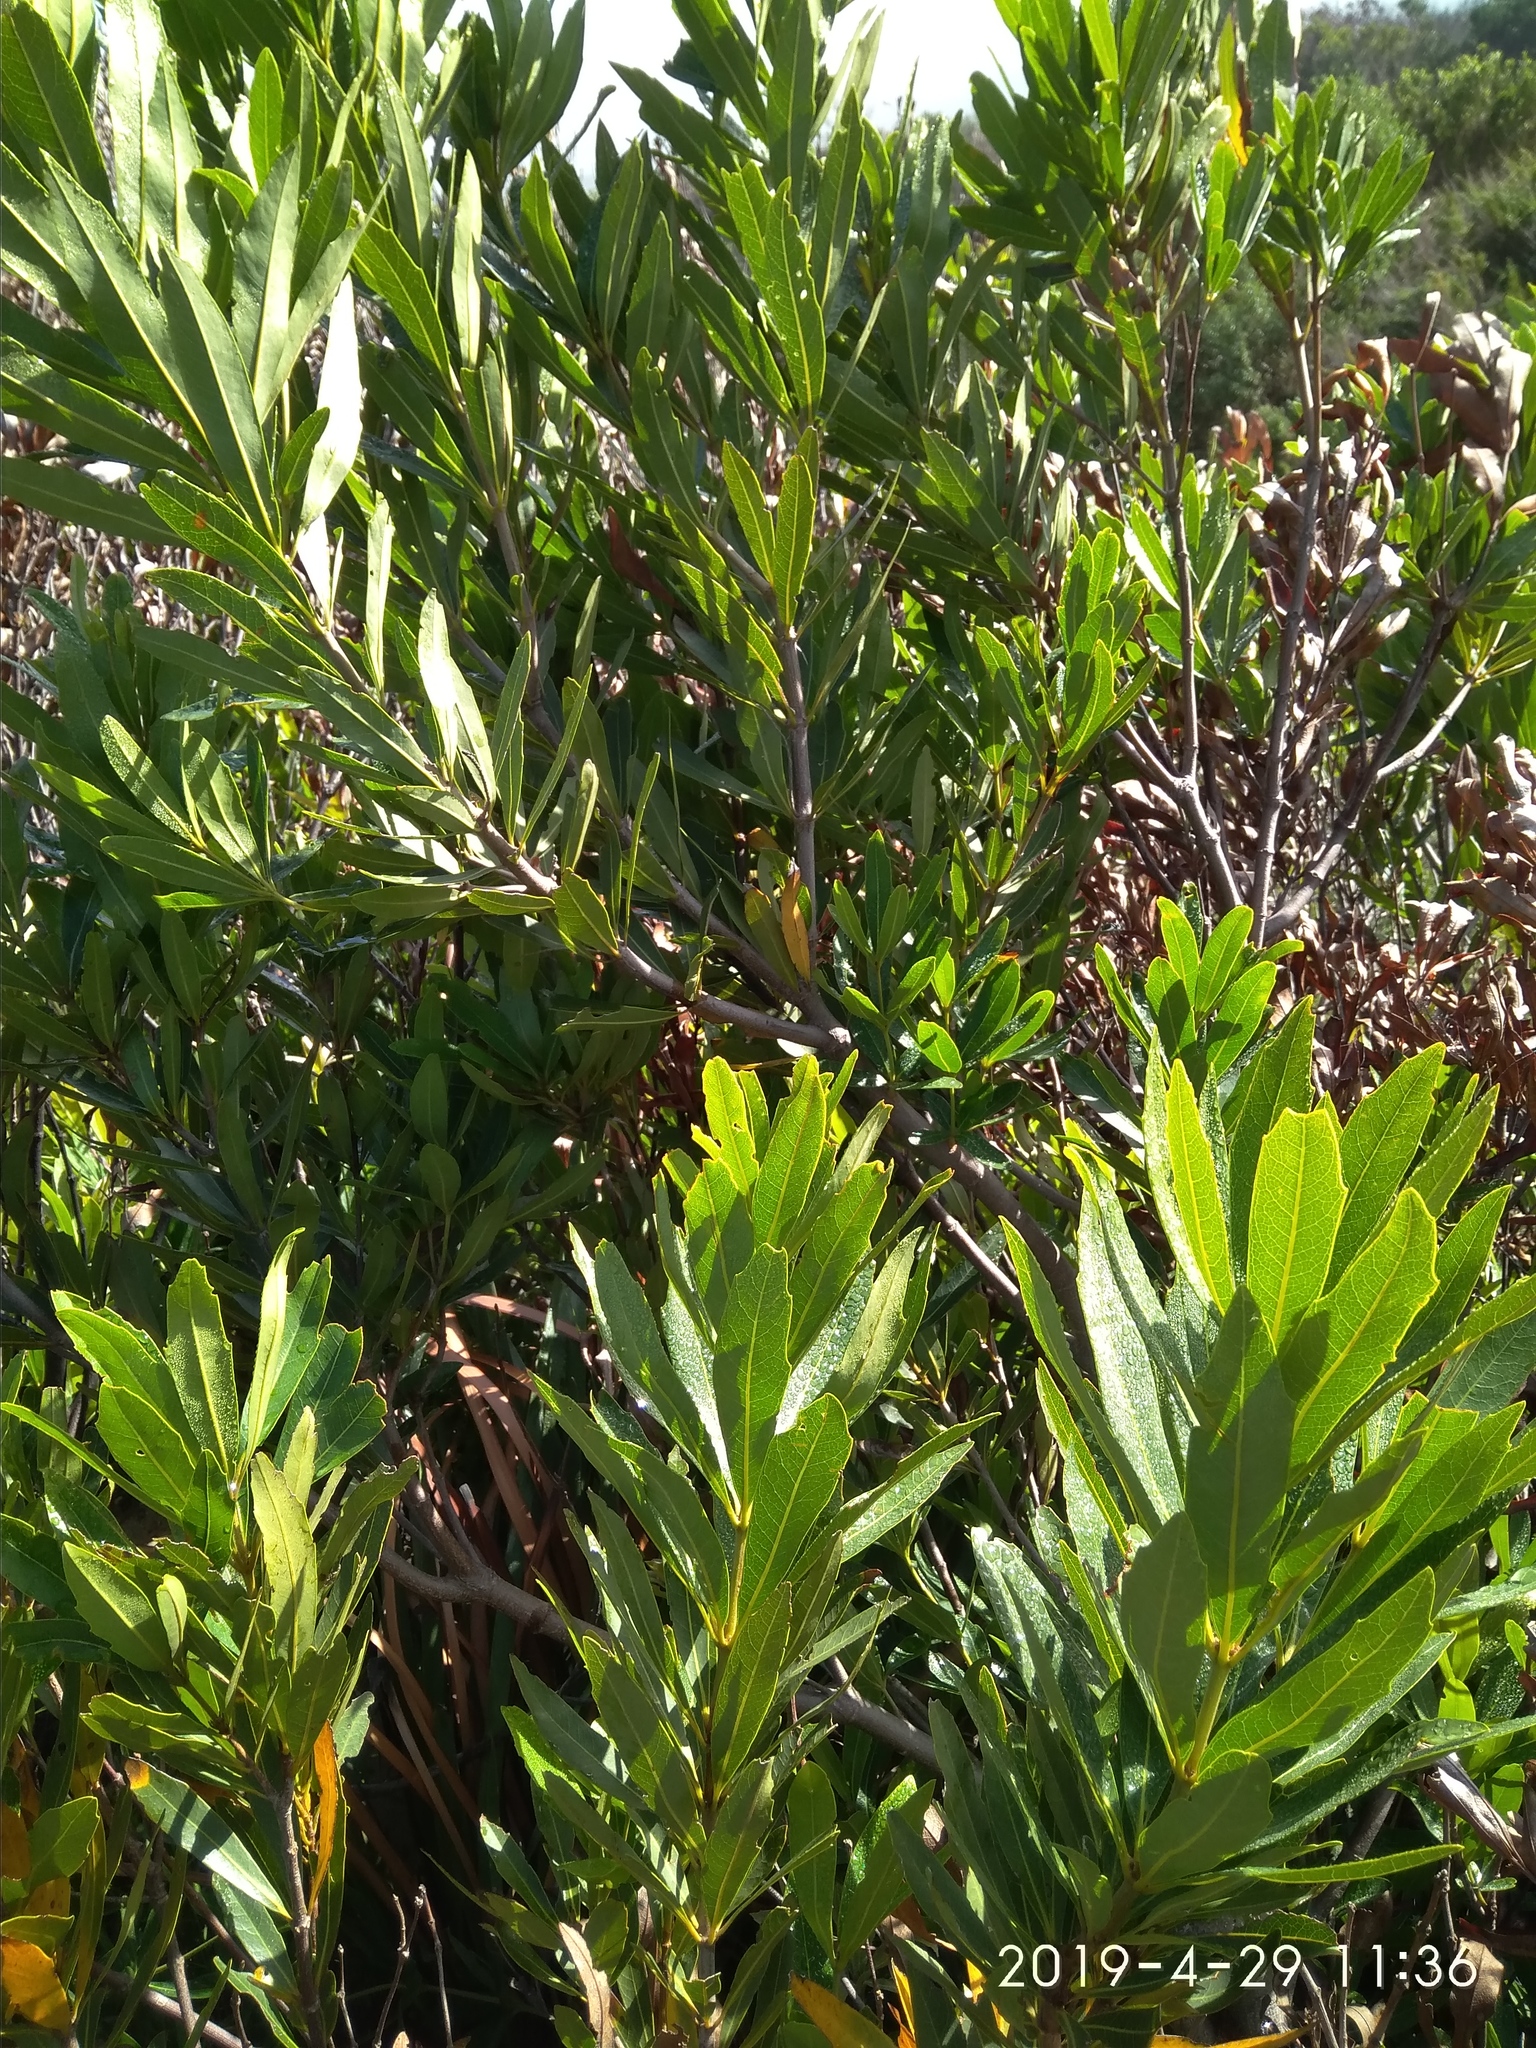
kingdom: Plantae
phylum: Tracheophyta
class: Magnoliopsida
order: Proteales
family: Proteaceae
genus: Brabejum
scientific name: Brabejum stellatifolium
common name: Wild almond
